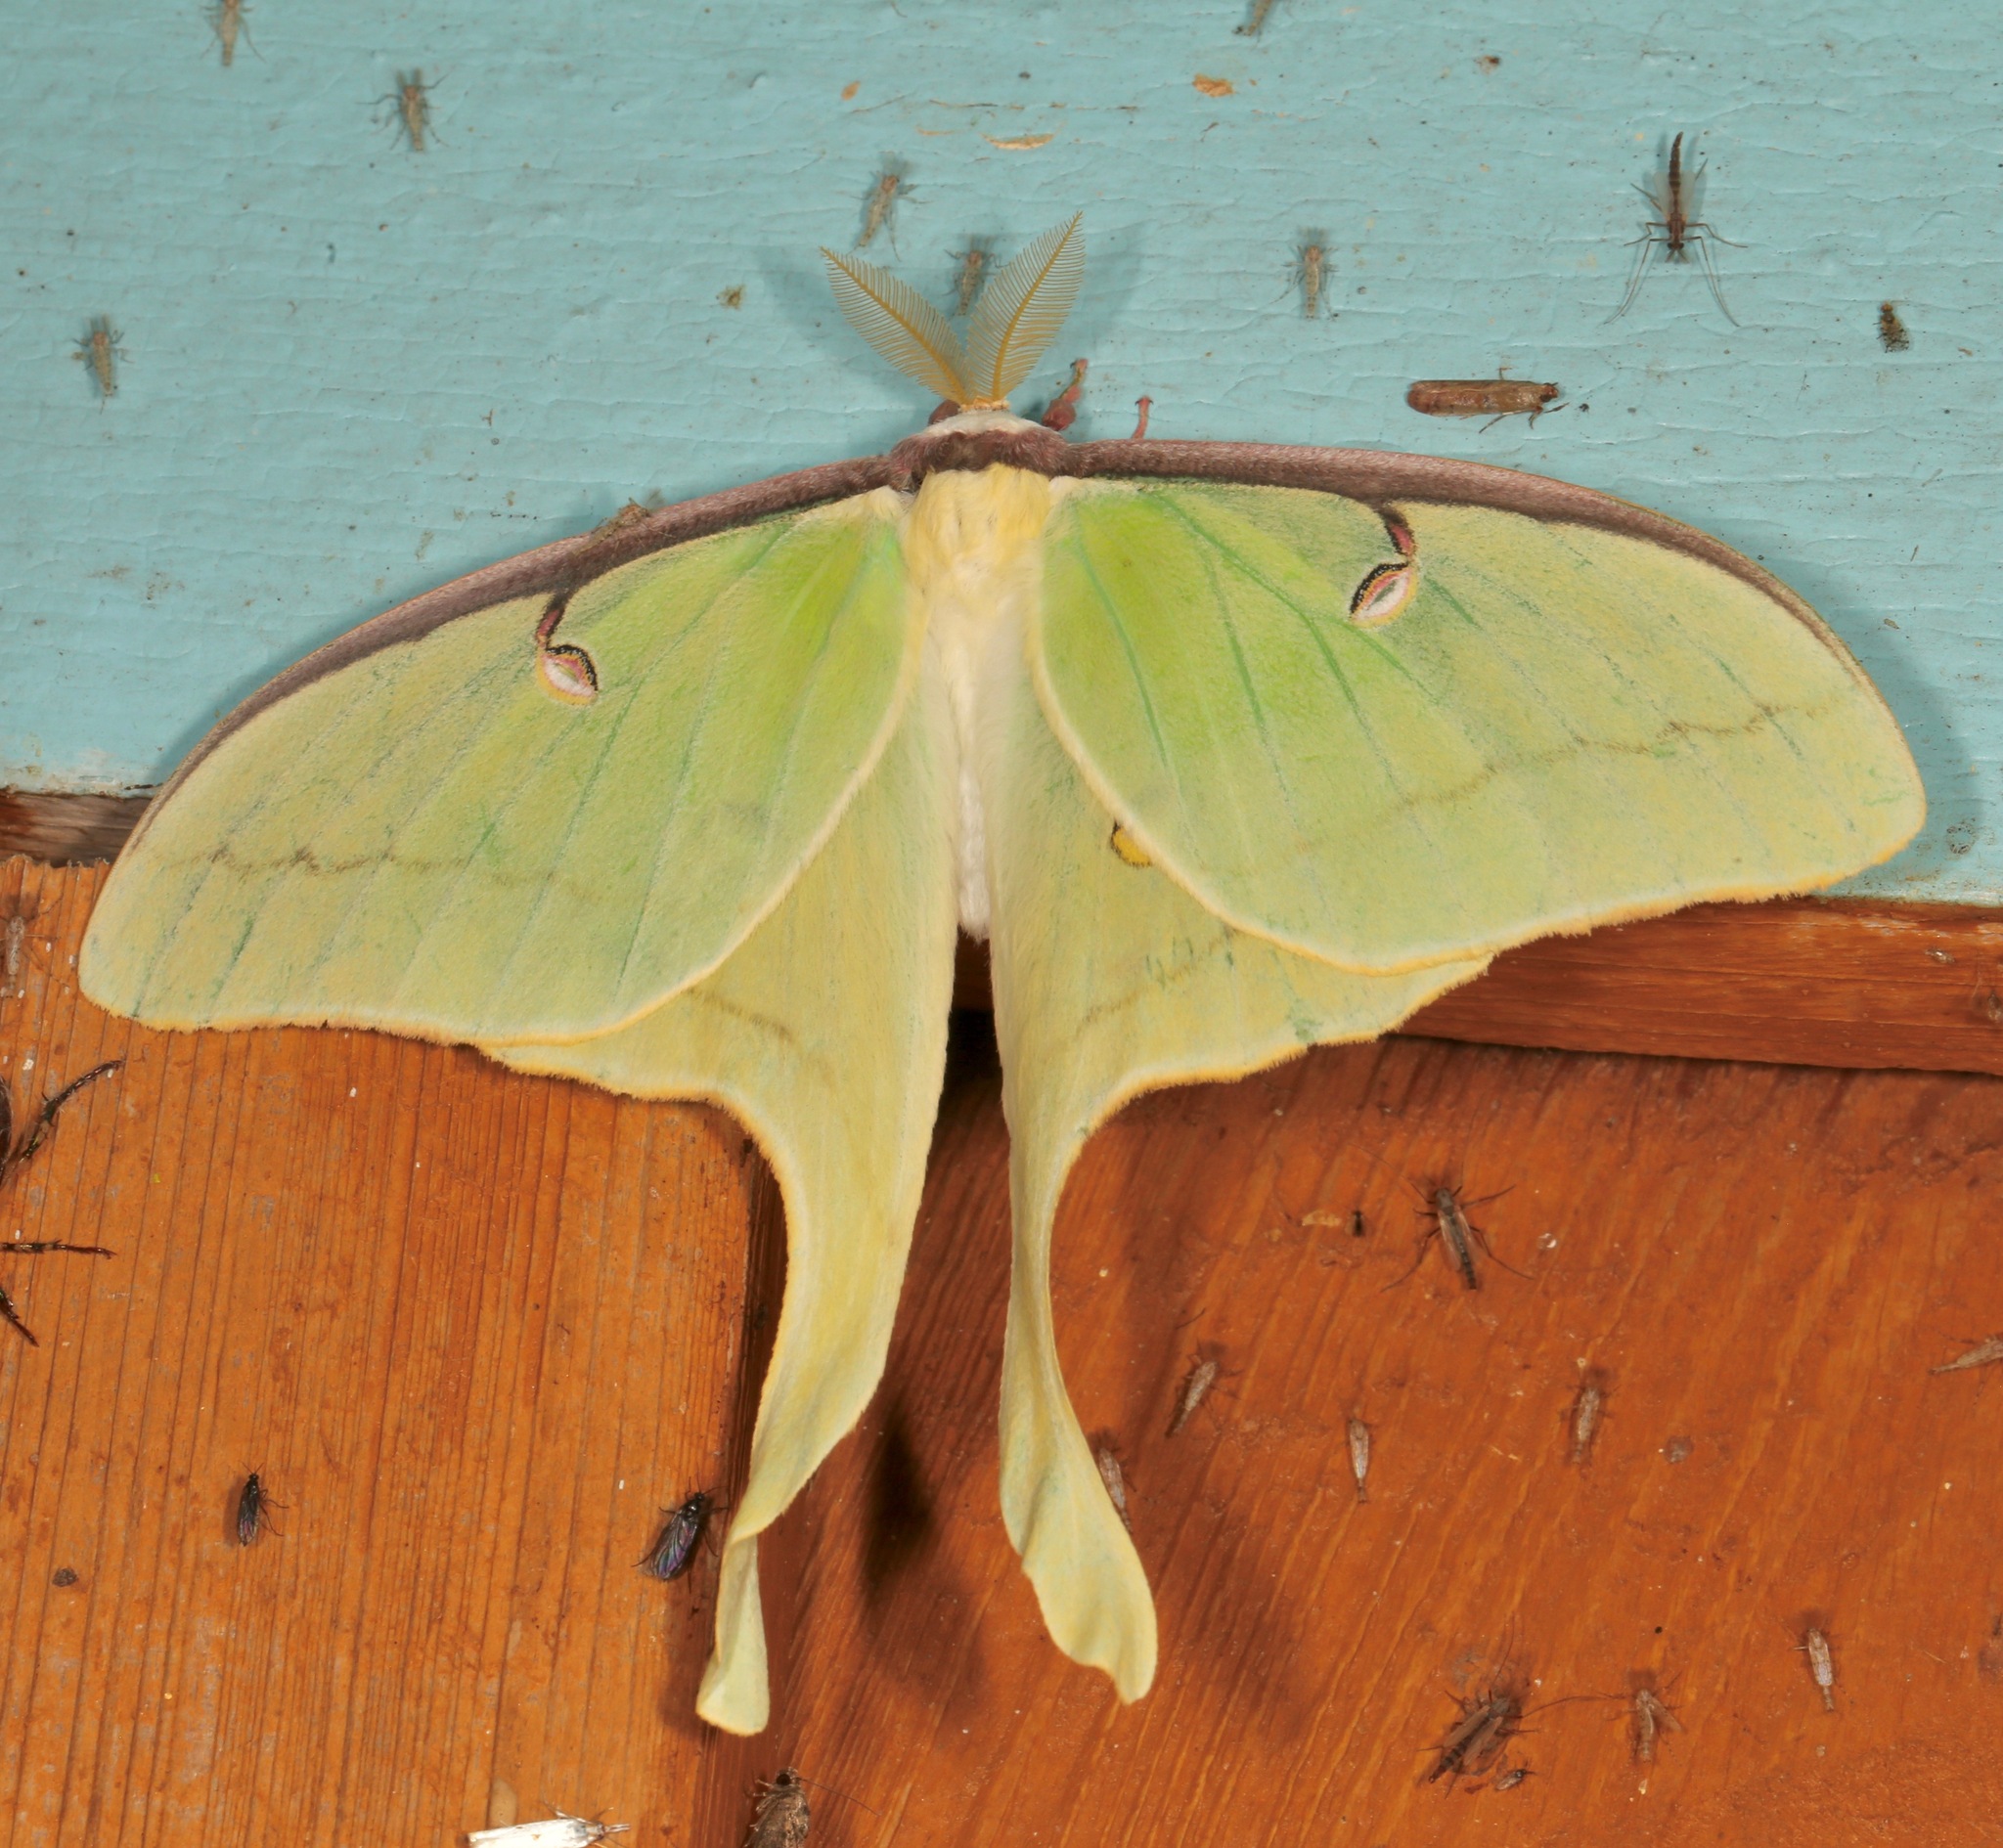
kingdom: Animalia
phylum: Arthropoda
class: Insecta
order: Lepidoptera
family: Saturniidae
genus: Actias
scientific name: Actias luna
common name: Luna moth
